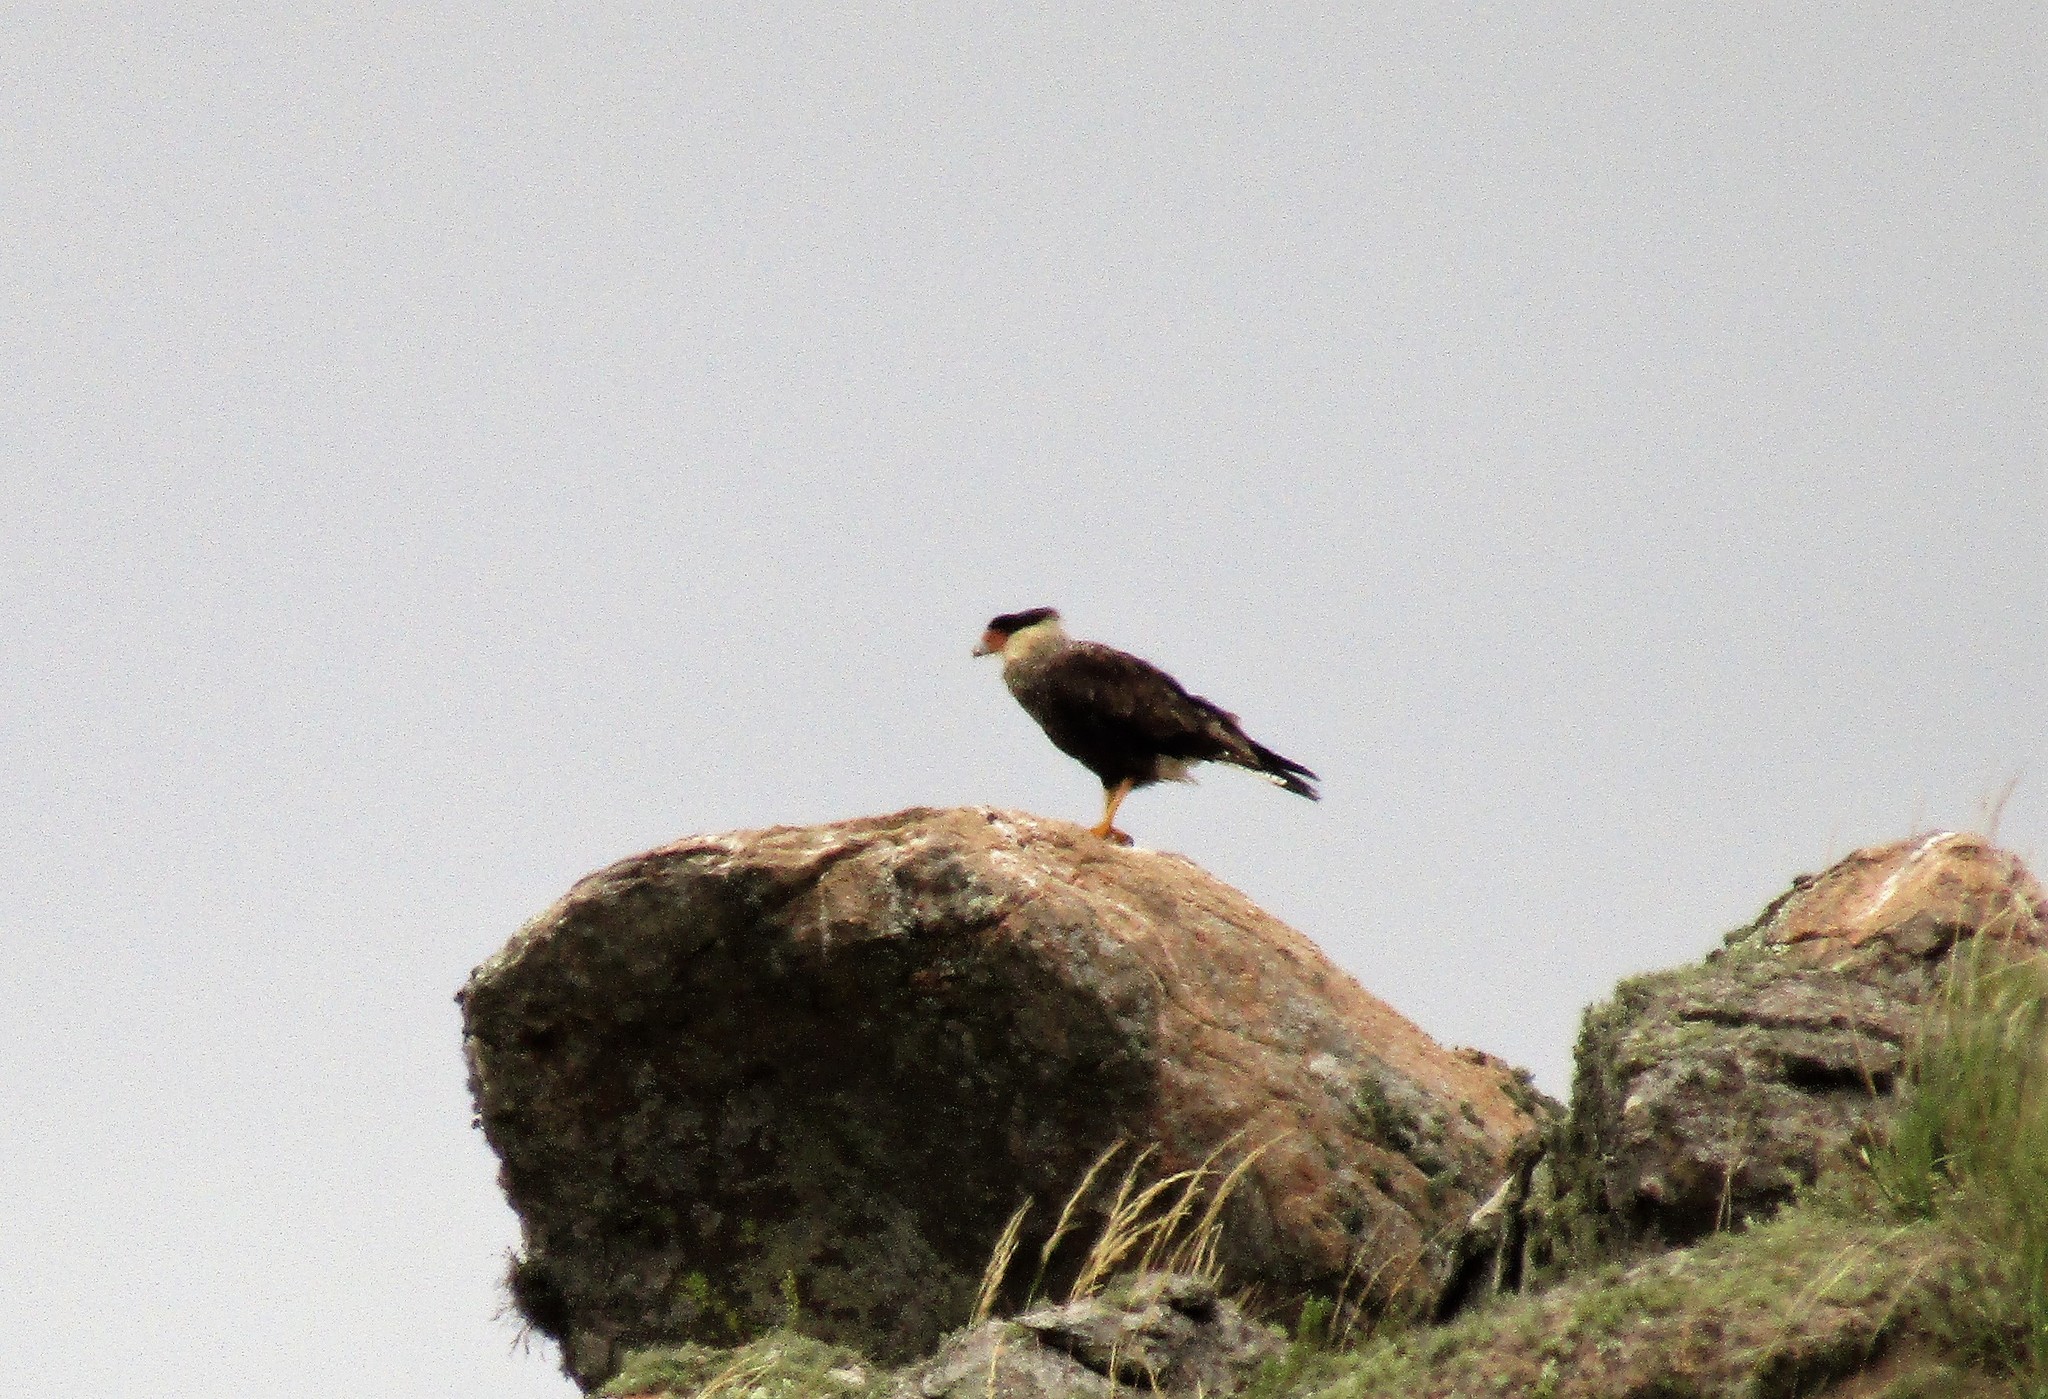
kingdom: Animalia
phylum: Chordata
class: Aves
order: Falconiformes
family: Falconidae
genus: Caracara
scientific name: Caracara plancus
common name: Southern caracara
